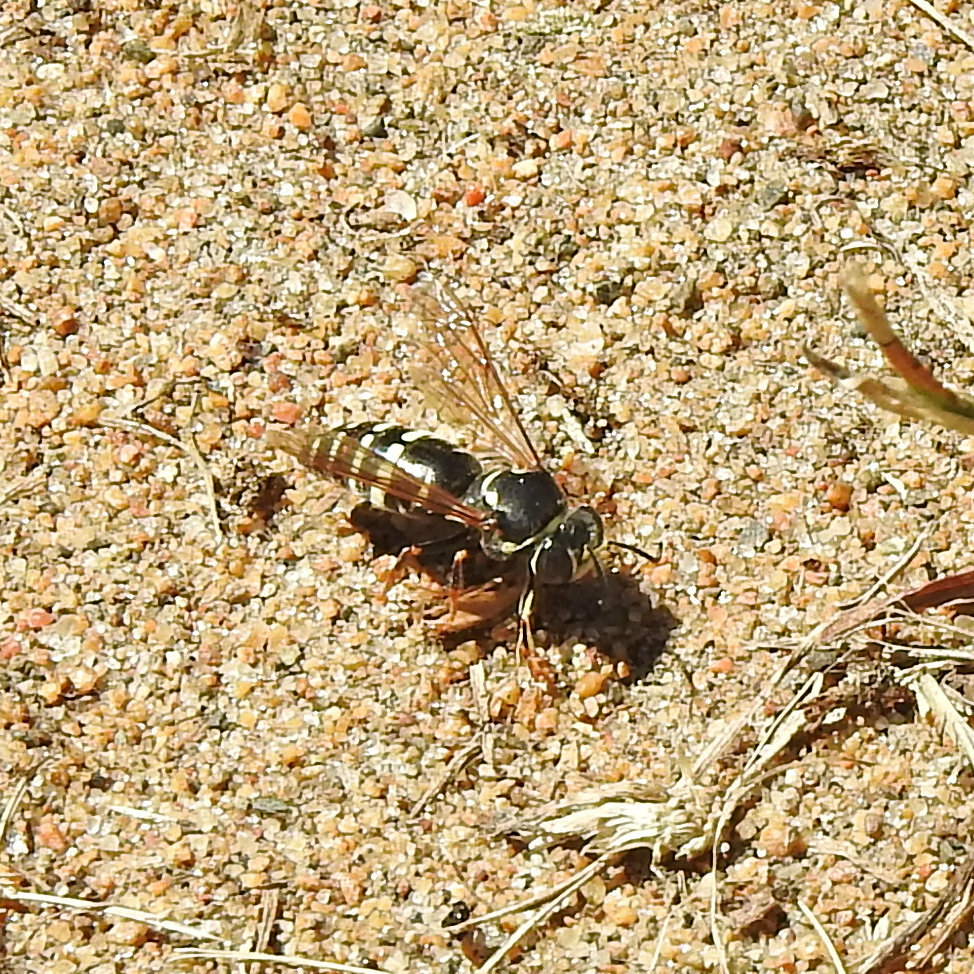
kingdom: Animalia
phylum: Arthropoda
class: Insecta
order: Hymenoptera
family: Crabronidae
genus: Bicyrtes
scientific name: Bicyrtes ventralis
